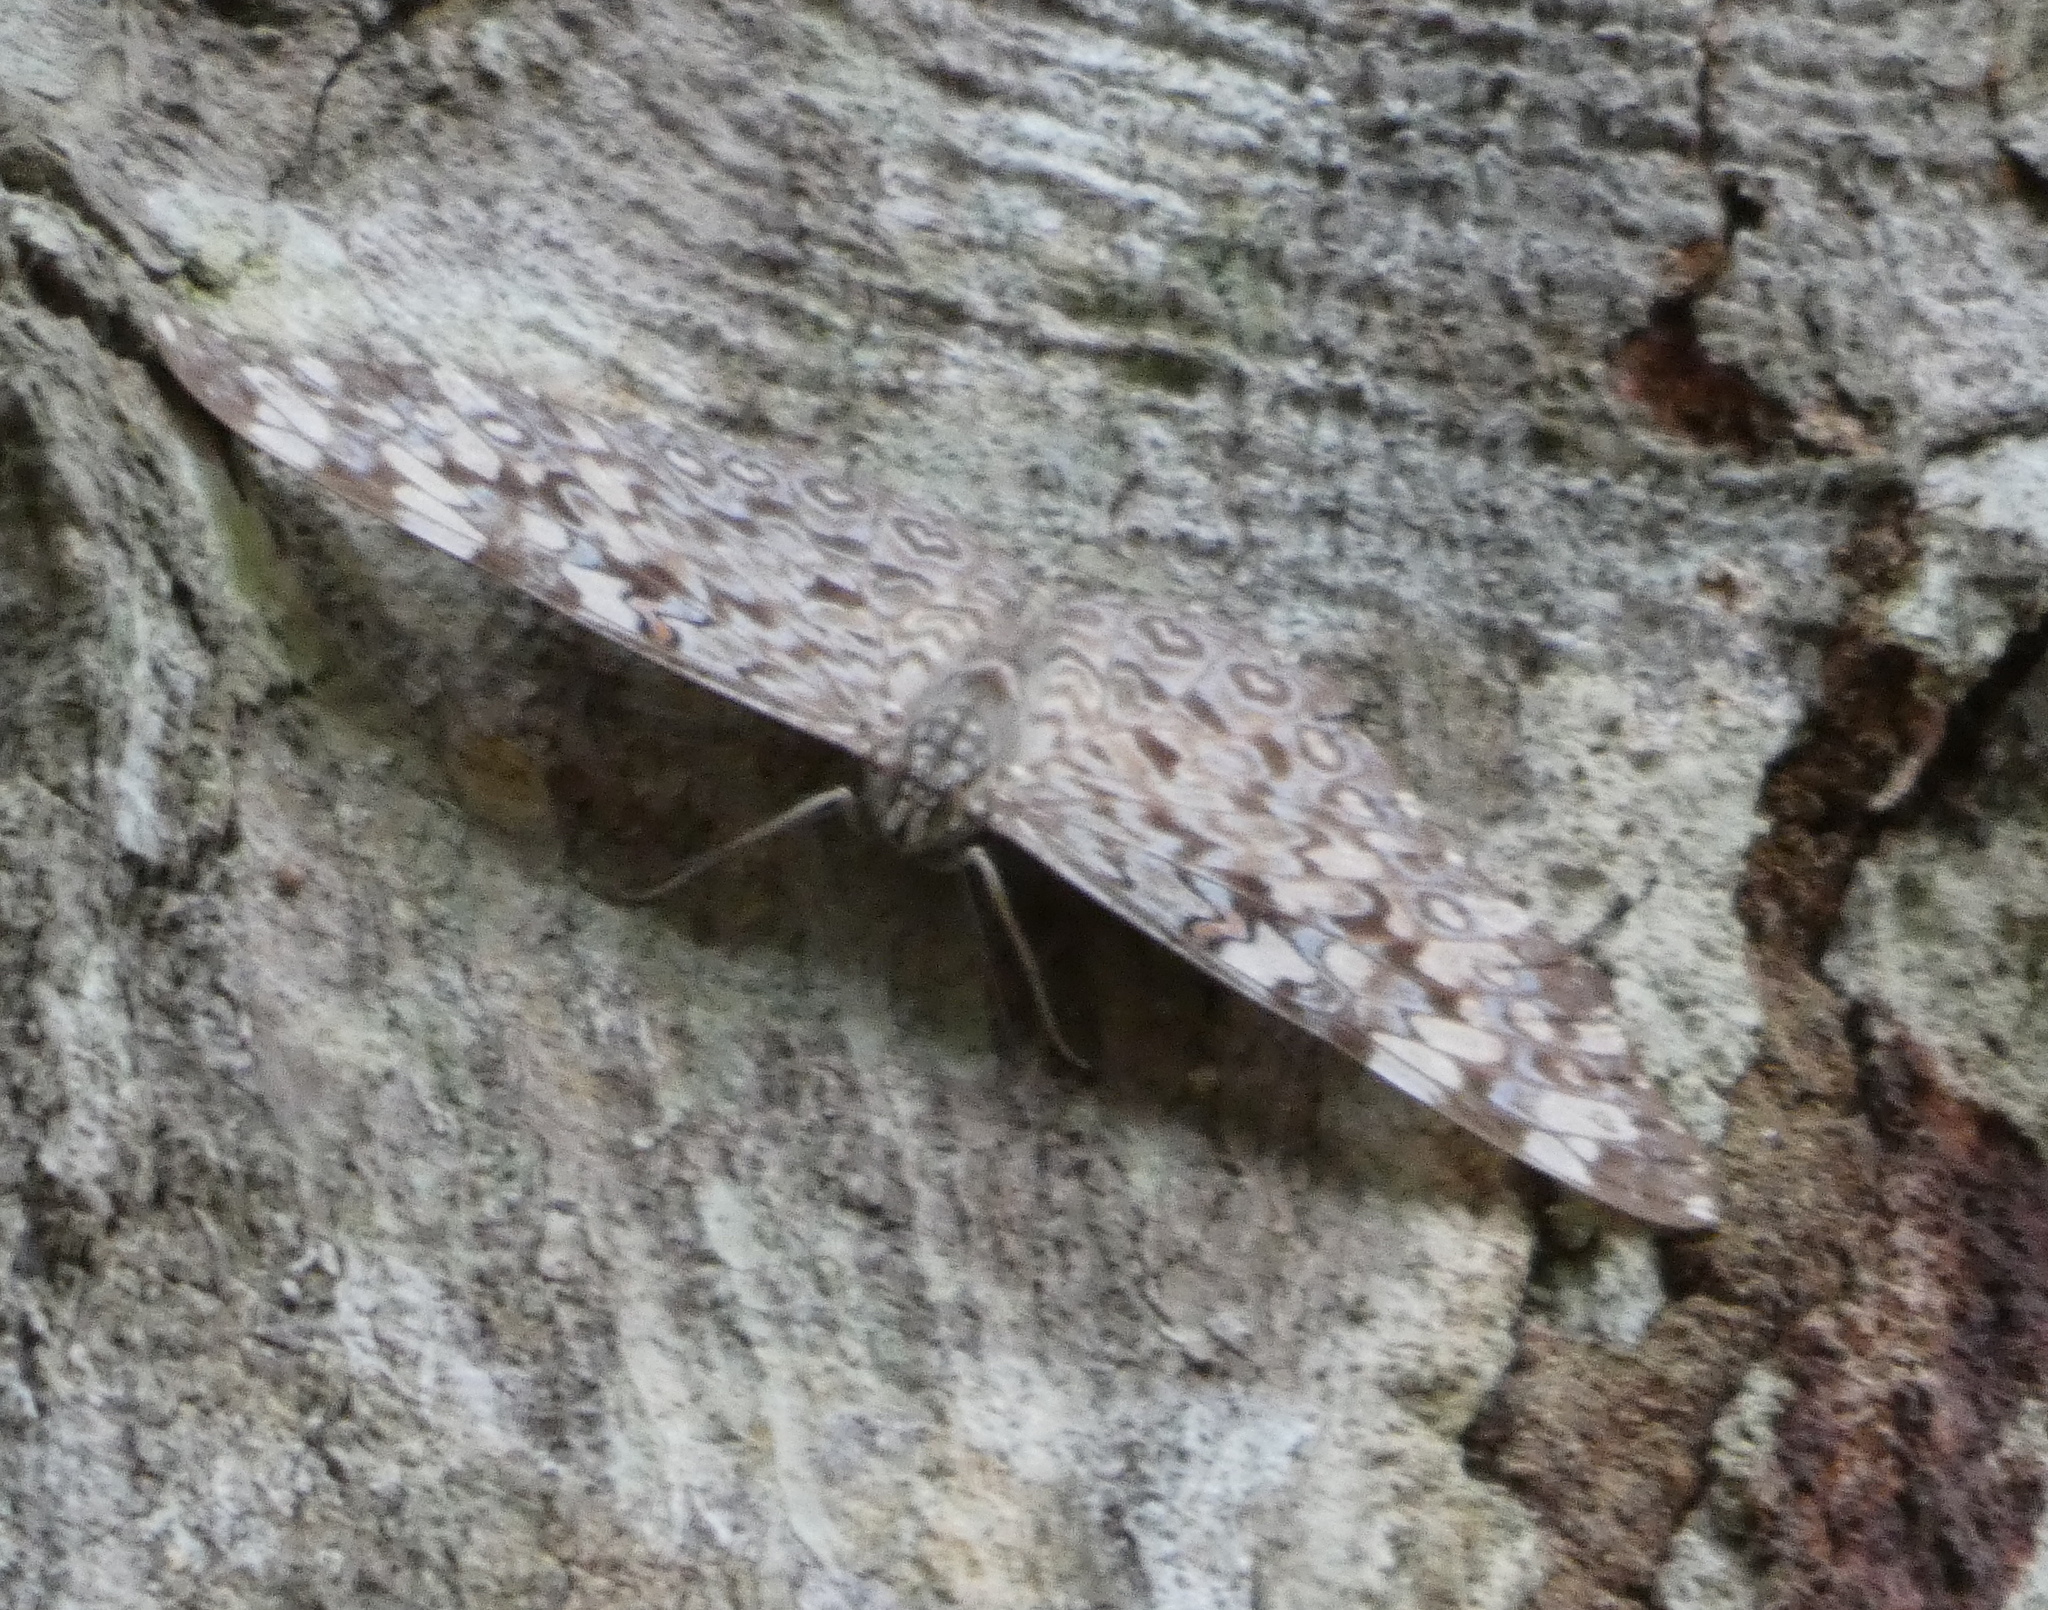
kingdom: Animalia
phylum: Arthropoda
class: Insecta
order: Lepidoptera
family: Nymphalidae
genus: Hamadryas
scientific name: Hamadryas feronia
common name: Variable cracker
